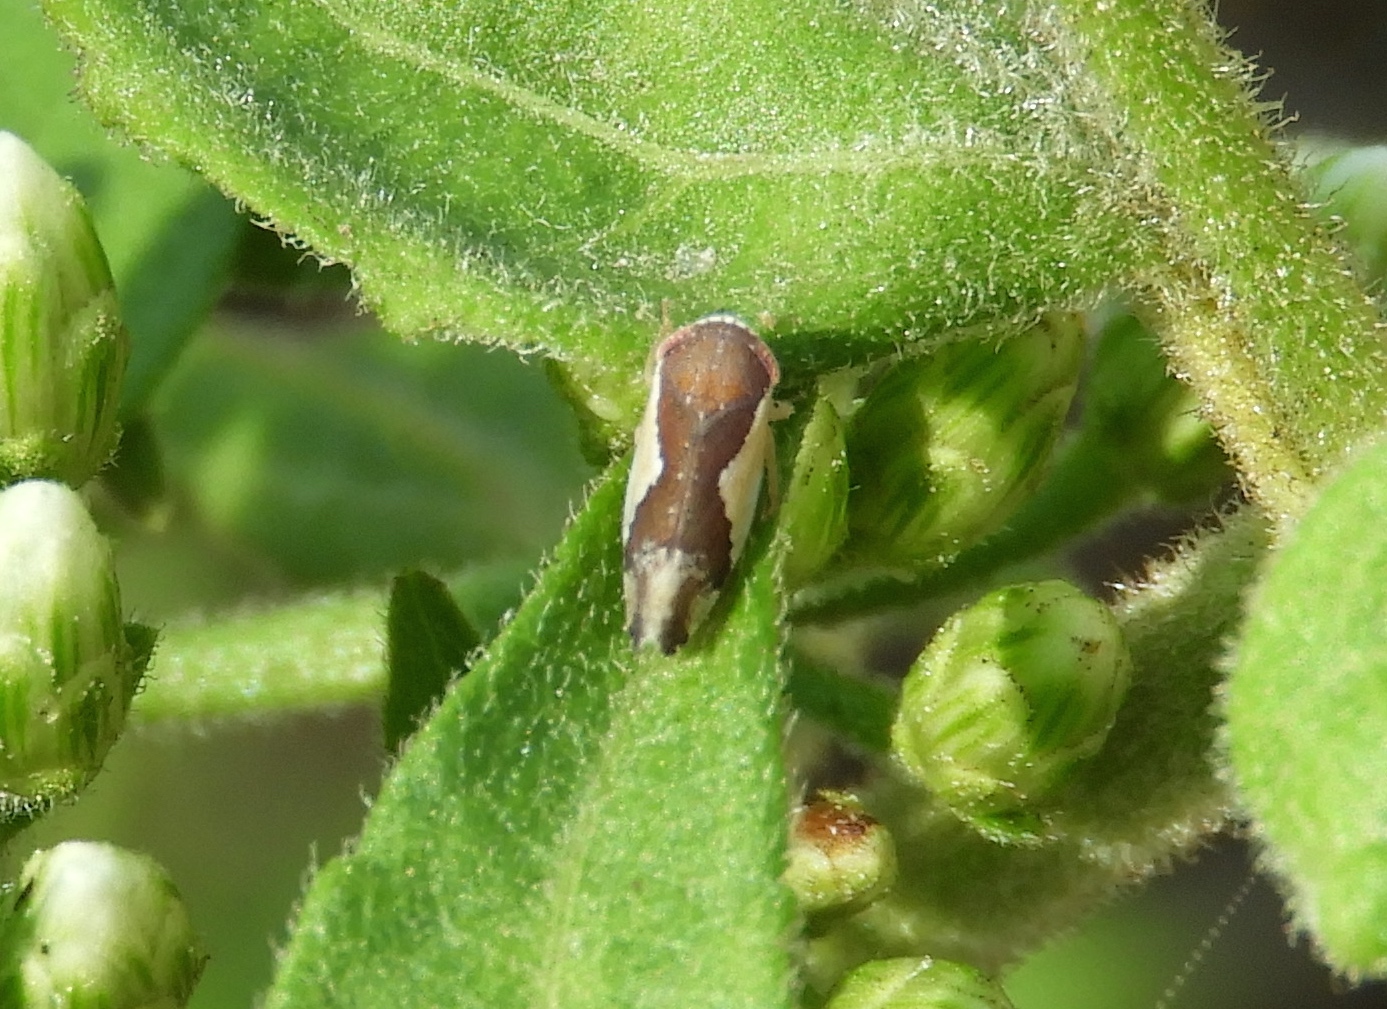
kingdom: Animalia
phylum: Arthropoda
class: Insecta
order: Hemiptera
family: Cicadellidae
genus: Norvellina
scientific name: Norvellina
